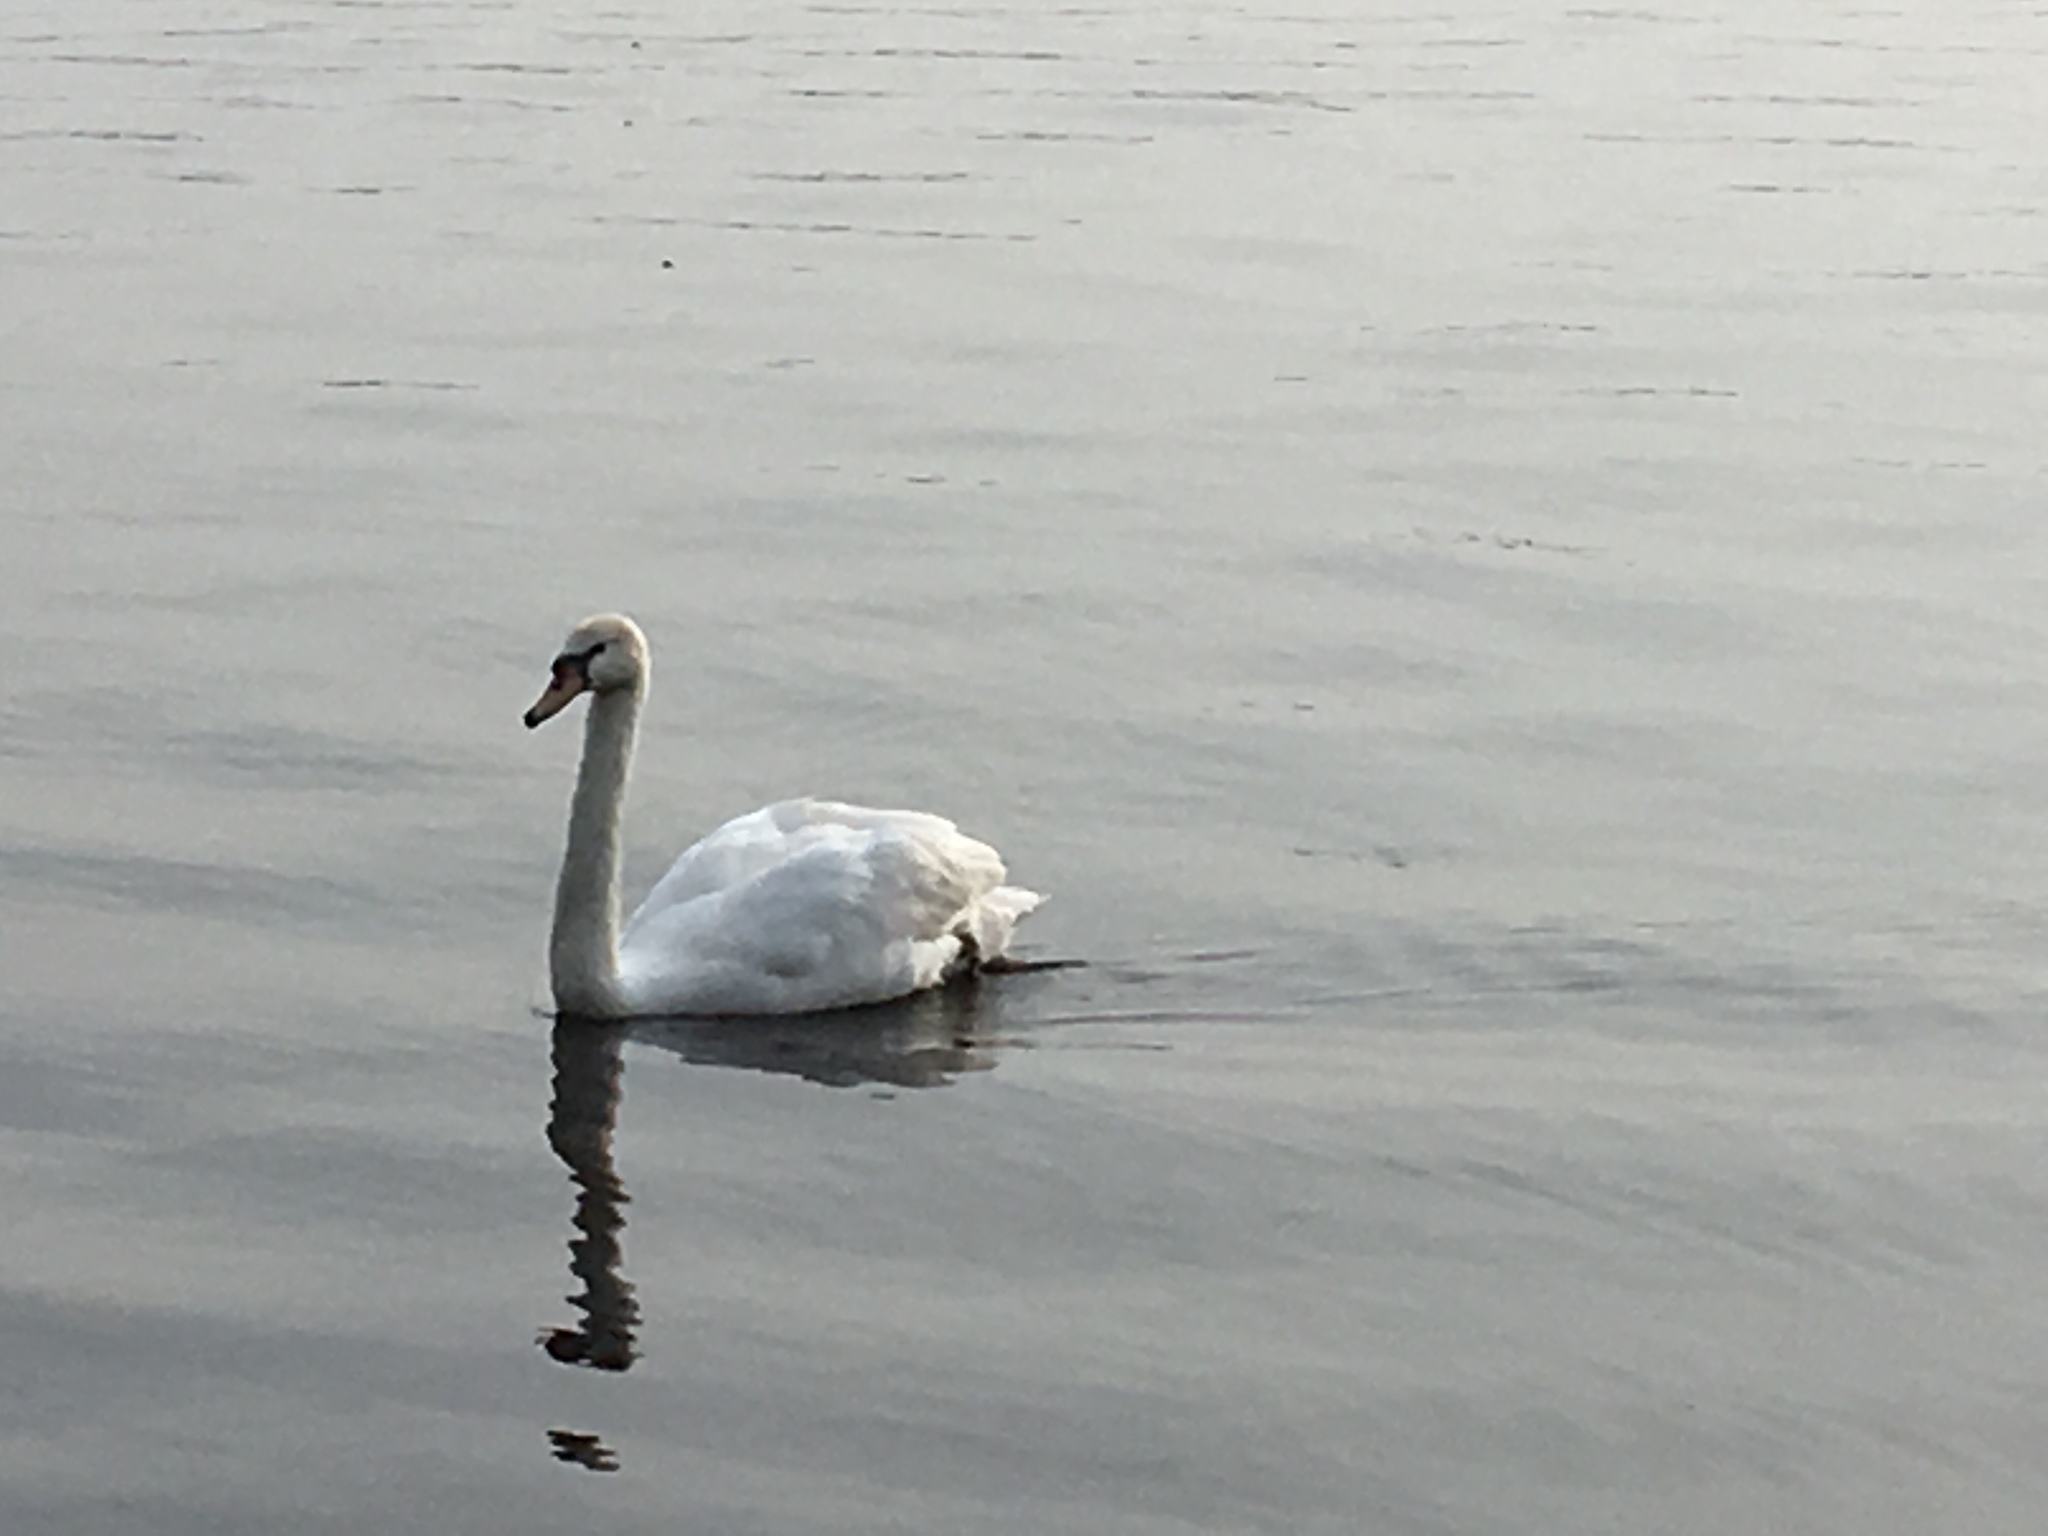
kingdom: Animalia
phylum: Chordata
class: Aves
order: Anseriformes
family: Anatidae
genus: Cygnus
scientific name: Cygnus olor
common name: Mute swan
